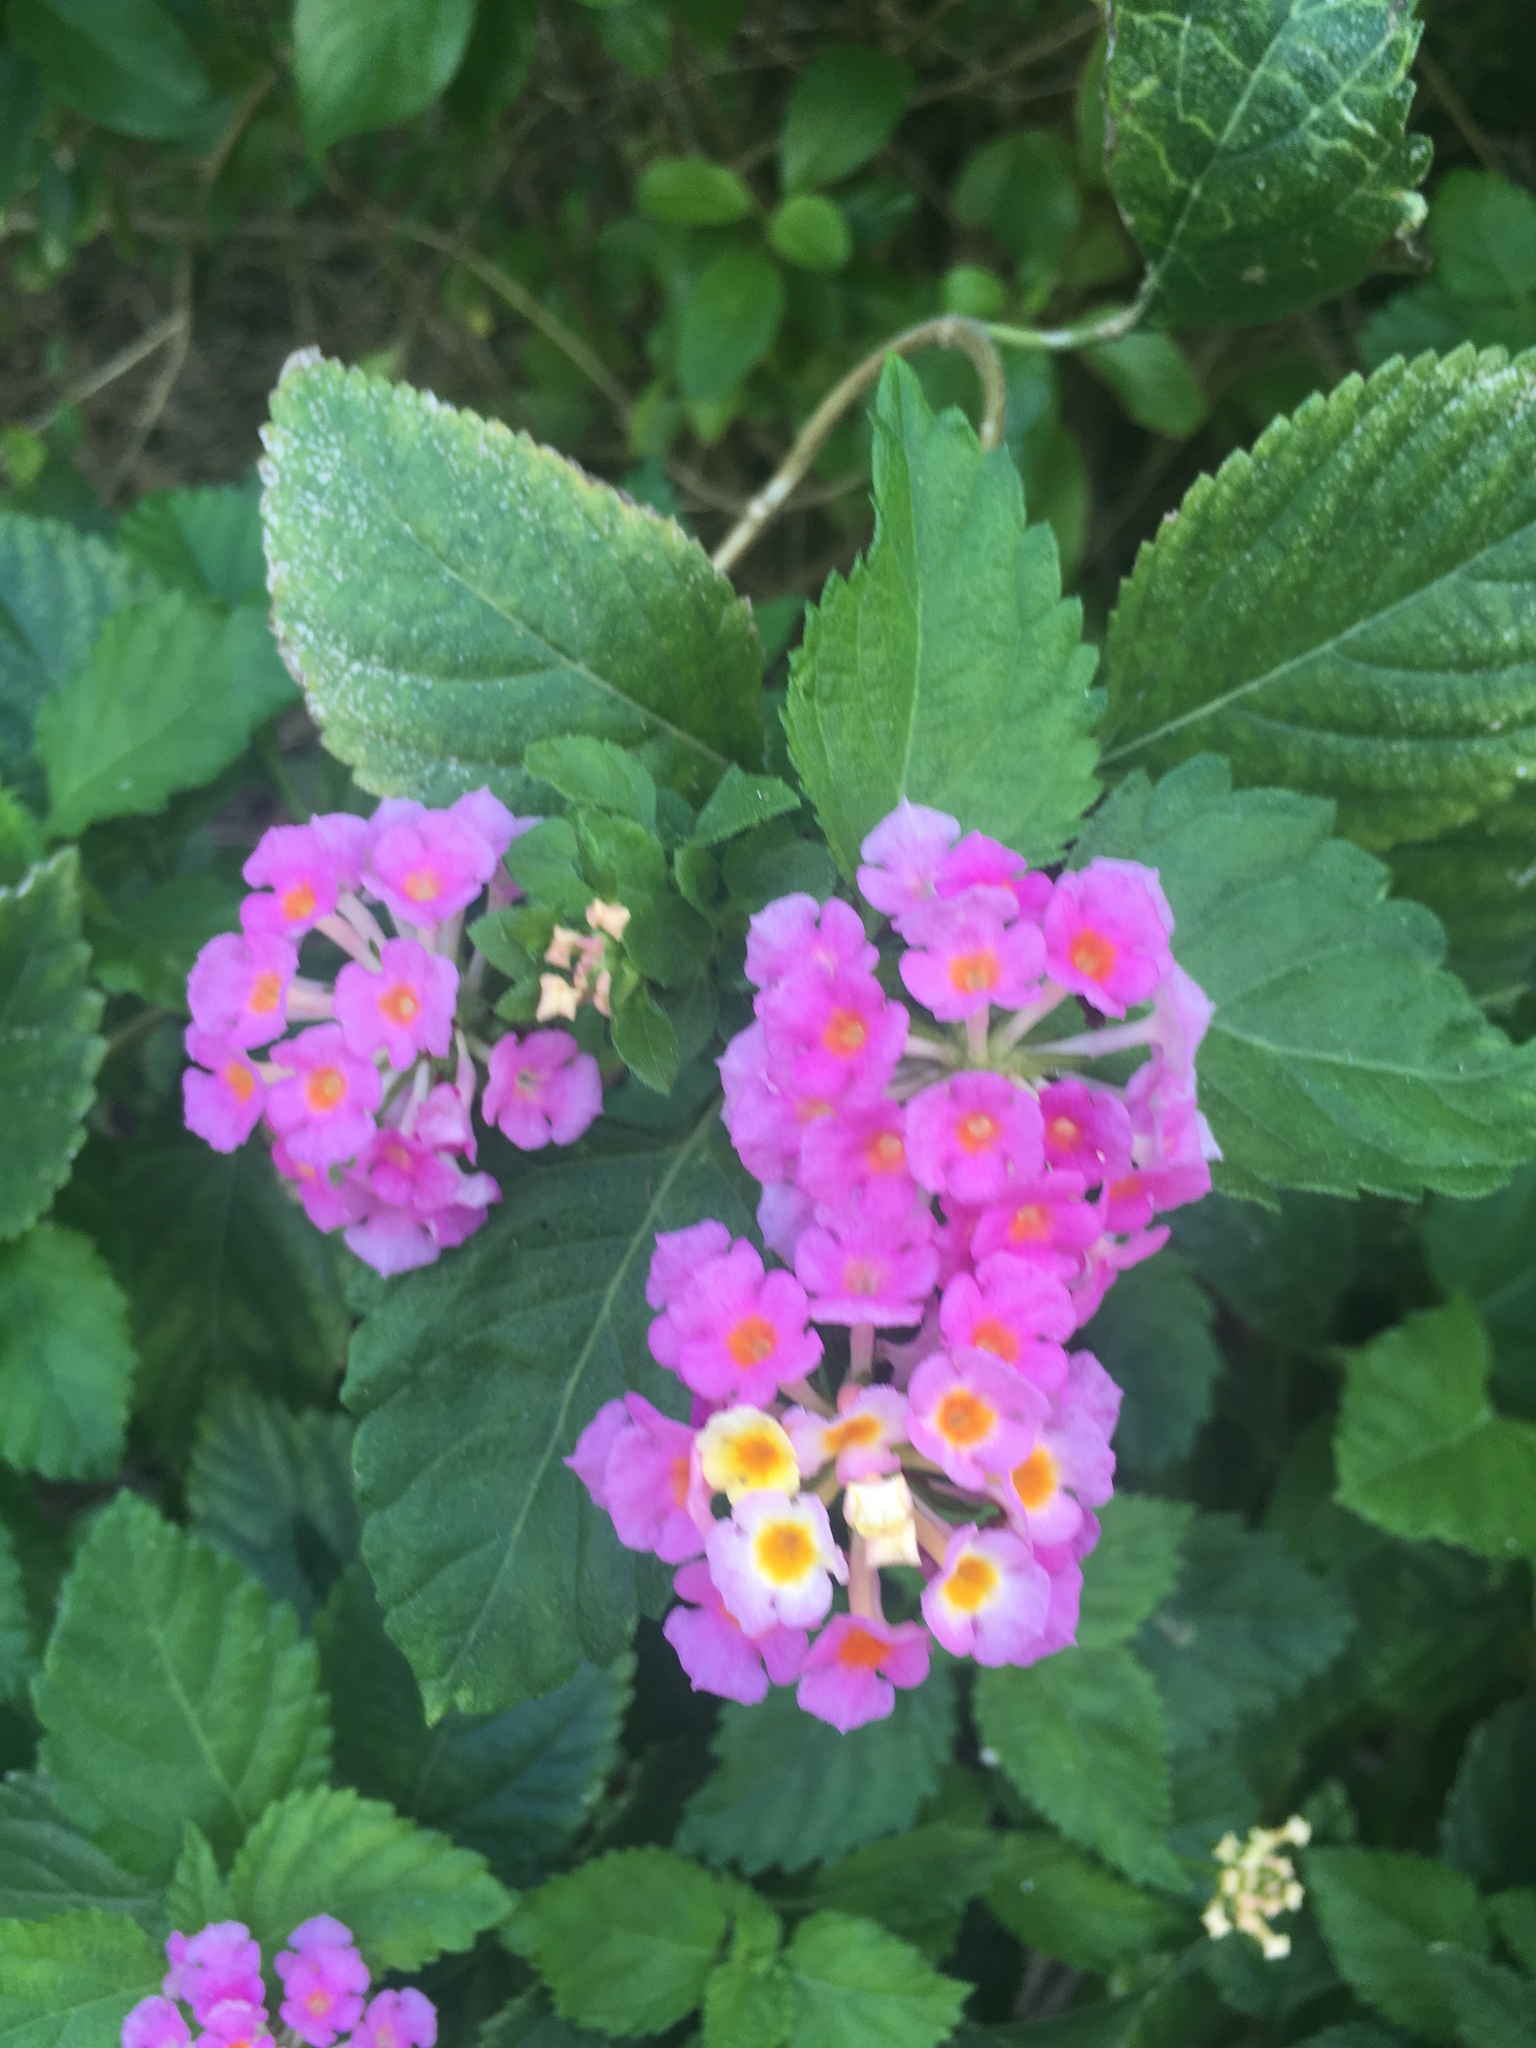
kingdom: Plantae
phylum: Tracheophyta
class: Magnoliopsida
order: Lamiales
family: Verbenaceae
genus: Lantana
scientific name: Lantana camara
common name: Lantana
